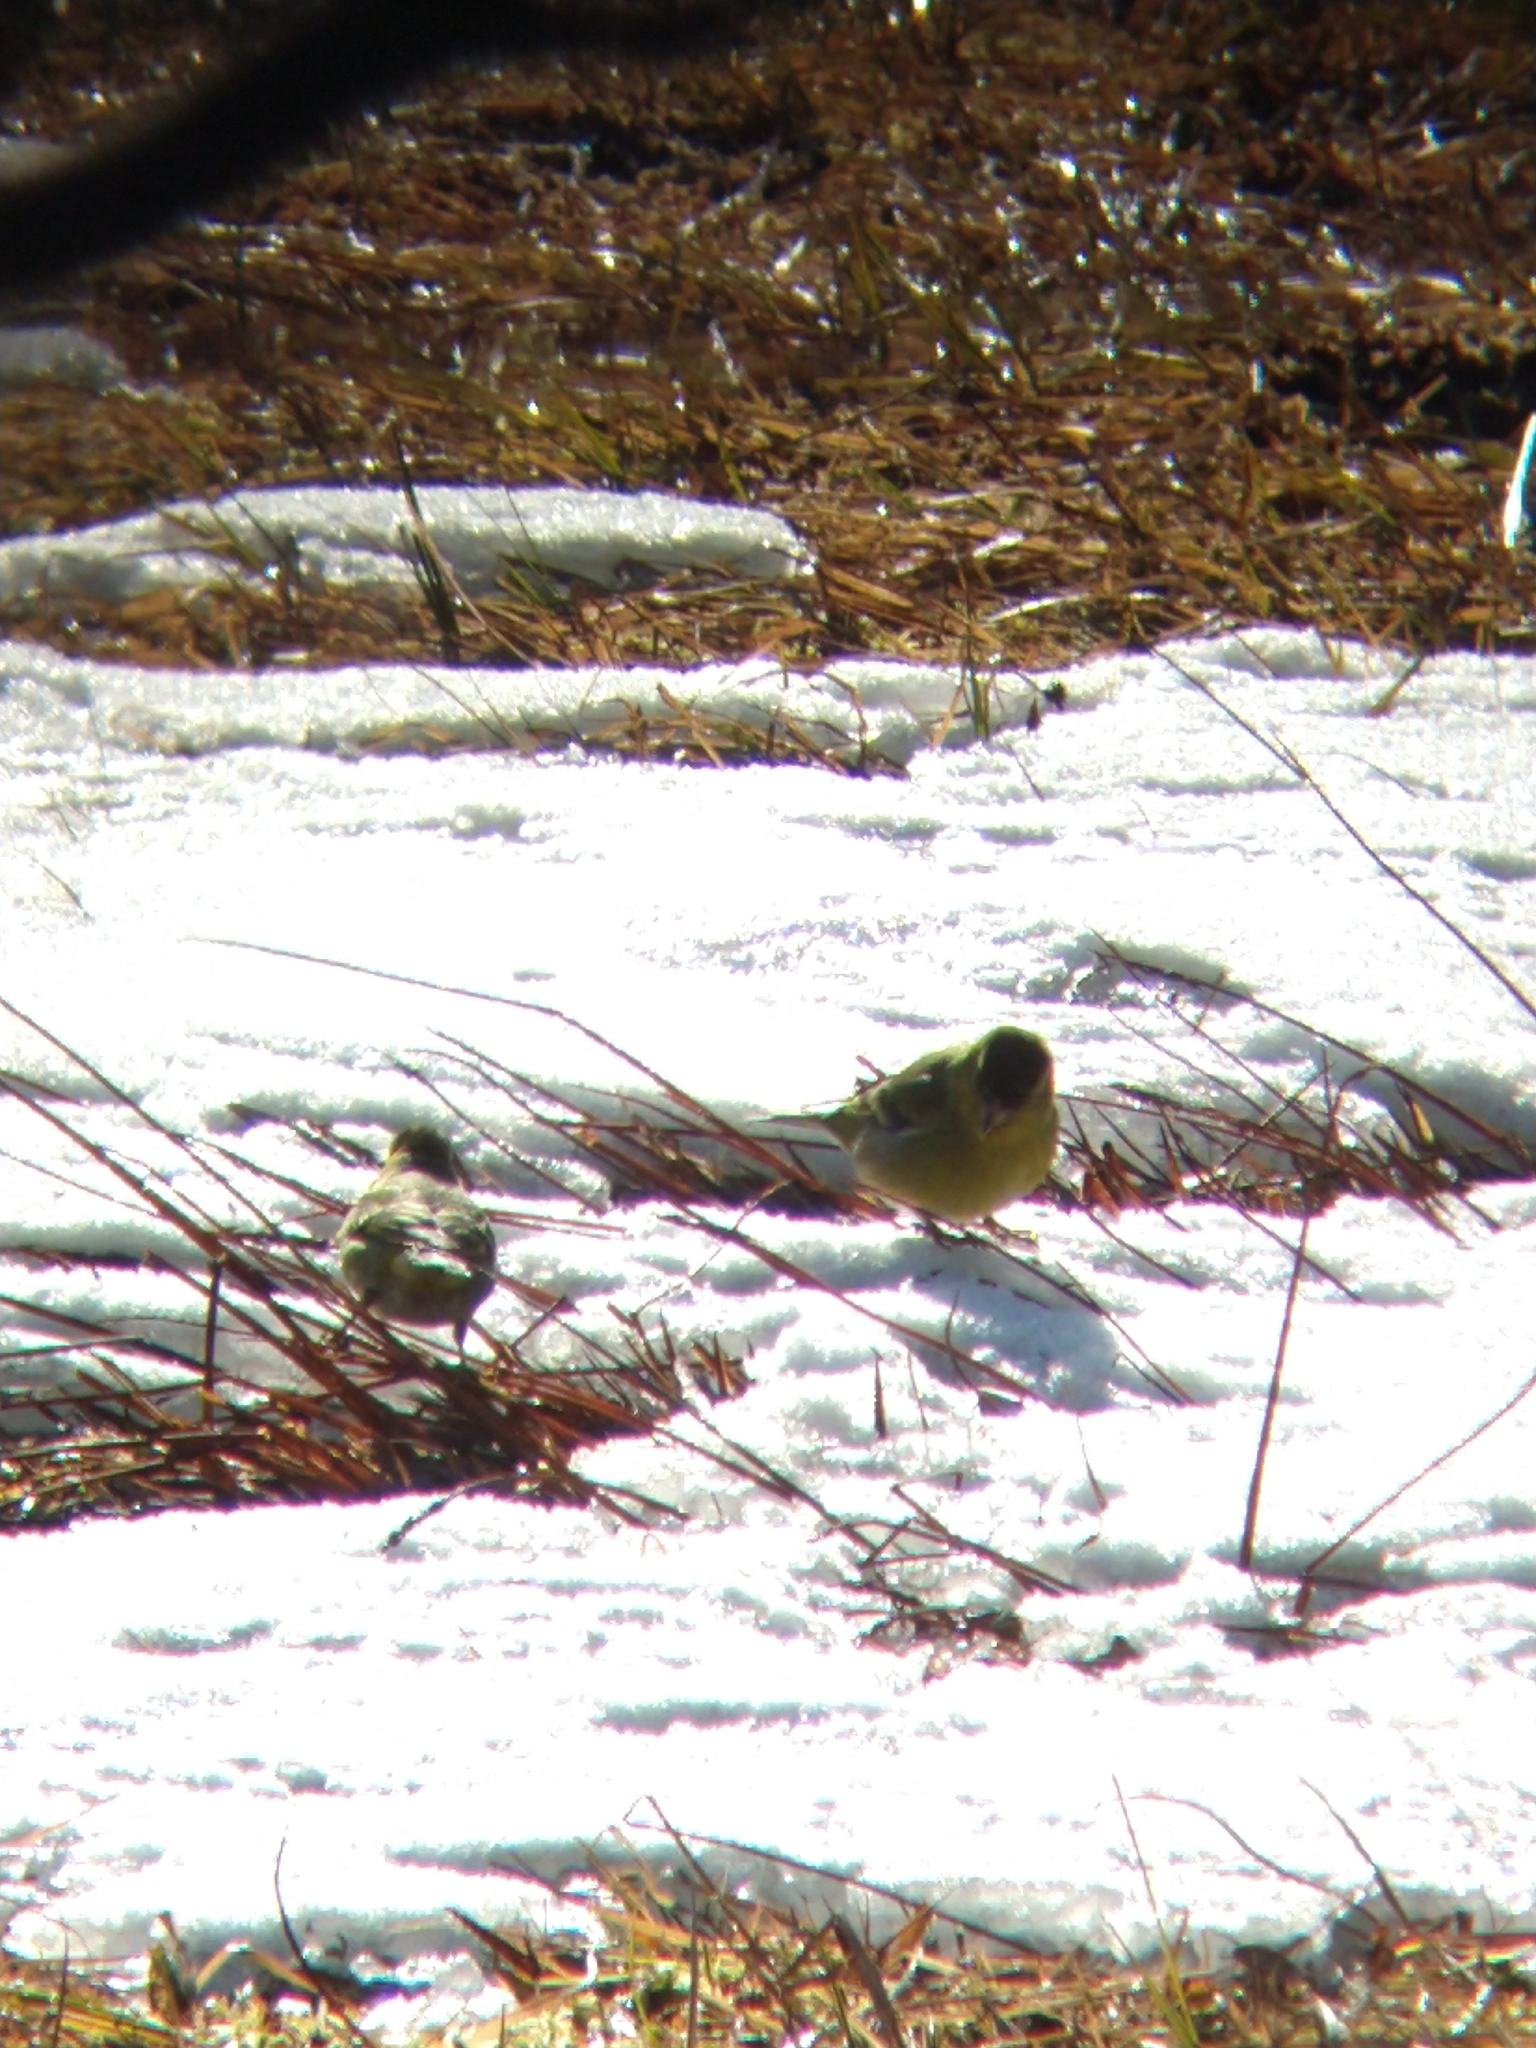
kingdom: Animalia
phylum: Chordata
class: Aves
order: Passeriformes
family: Fringillidae
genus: Spinus
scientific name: Spinus barbatus
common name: Black-chinned siskin
